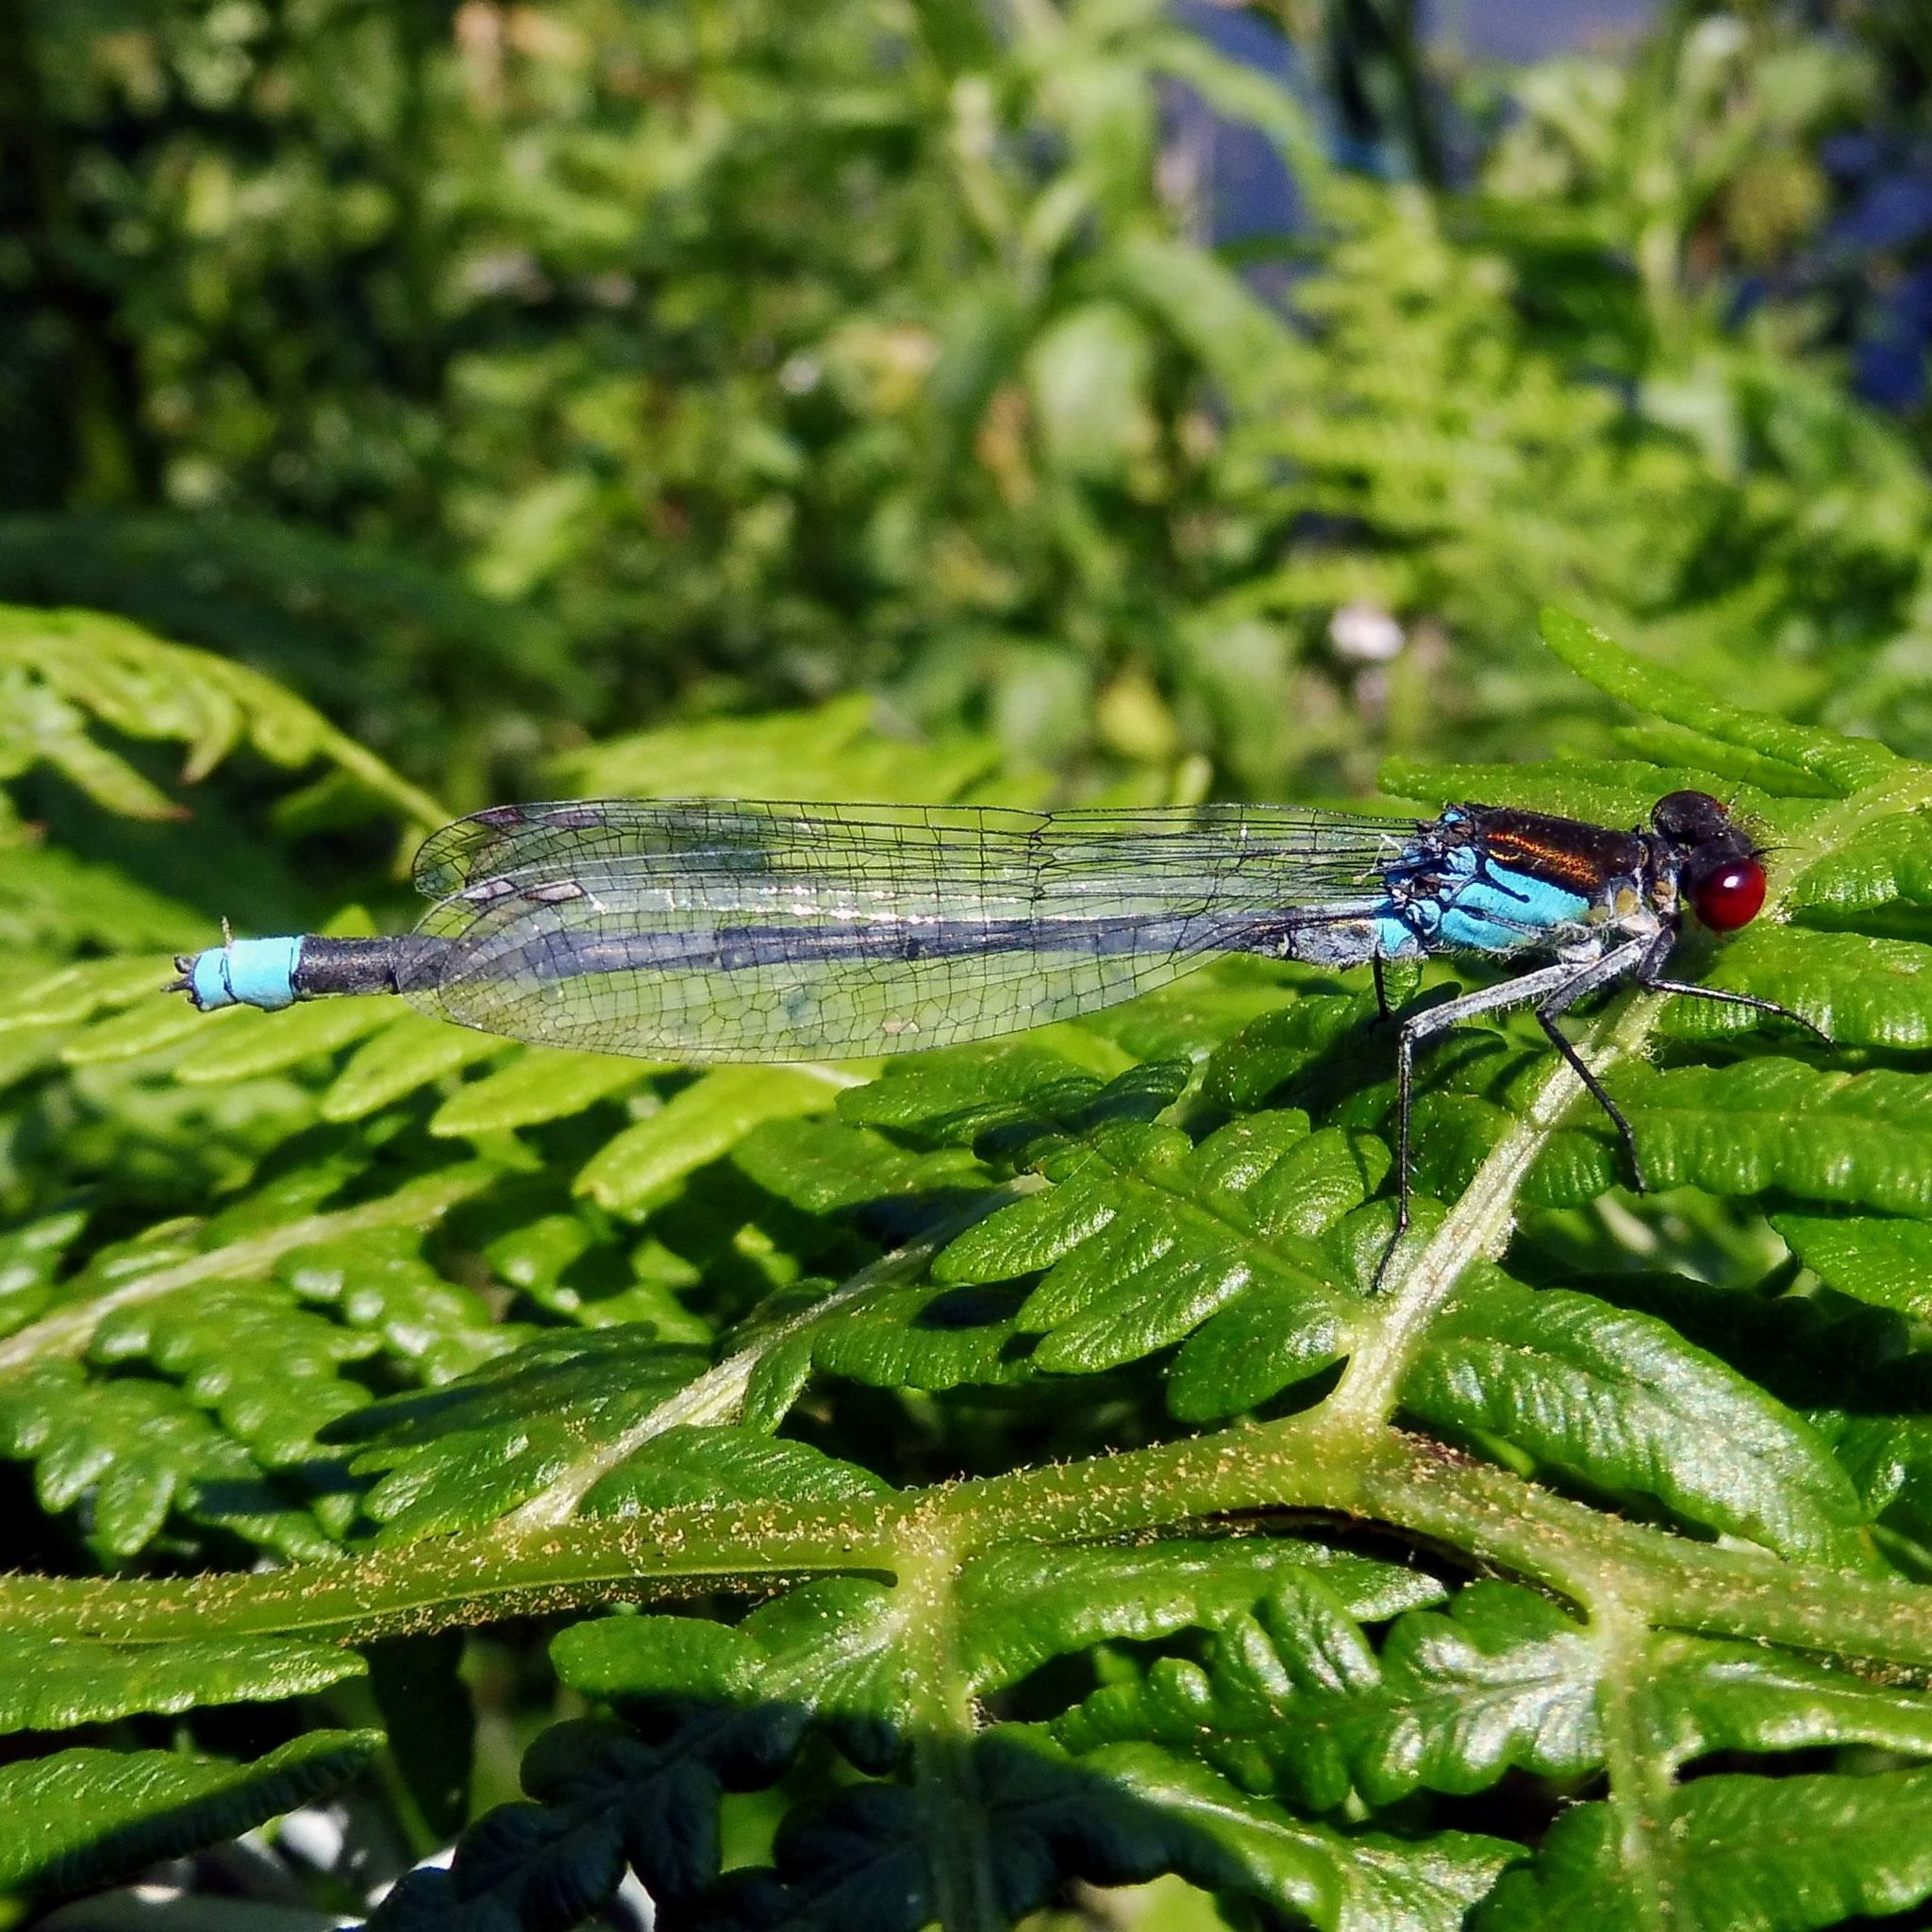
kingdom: Animalia
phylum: Arthropoda
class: Insecta
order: Odonata
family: Coenagrionidae
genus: Erythromma
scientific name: Erythromma najas
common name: Red-eyed damselfly
